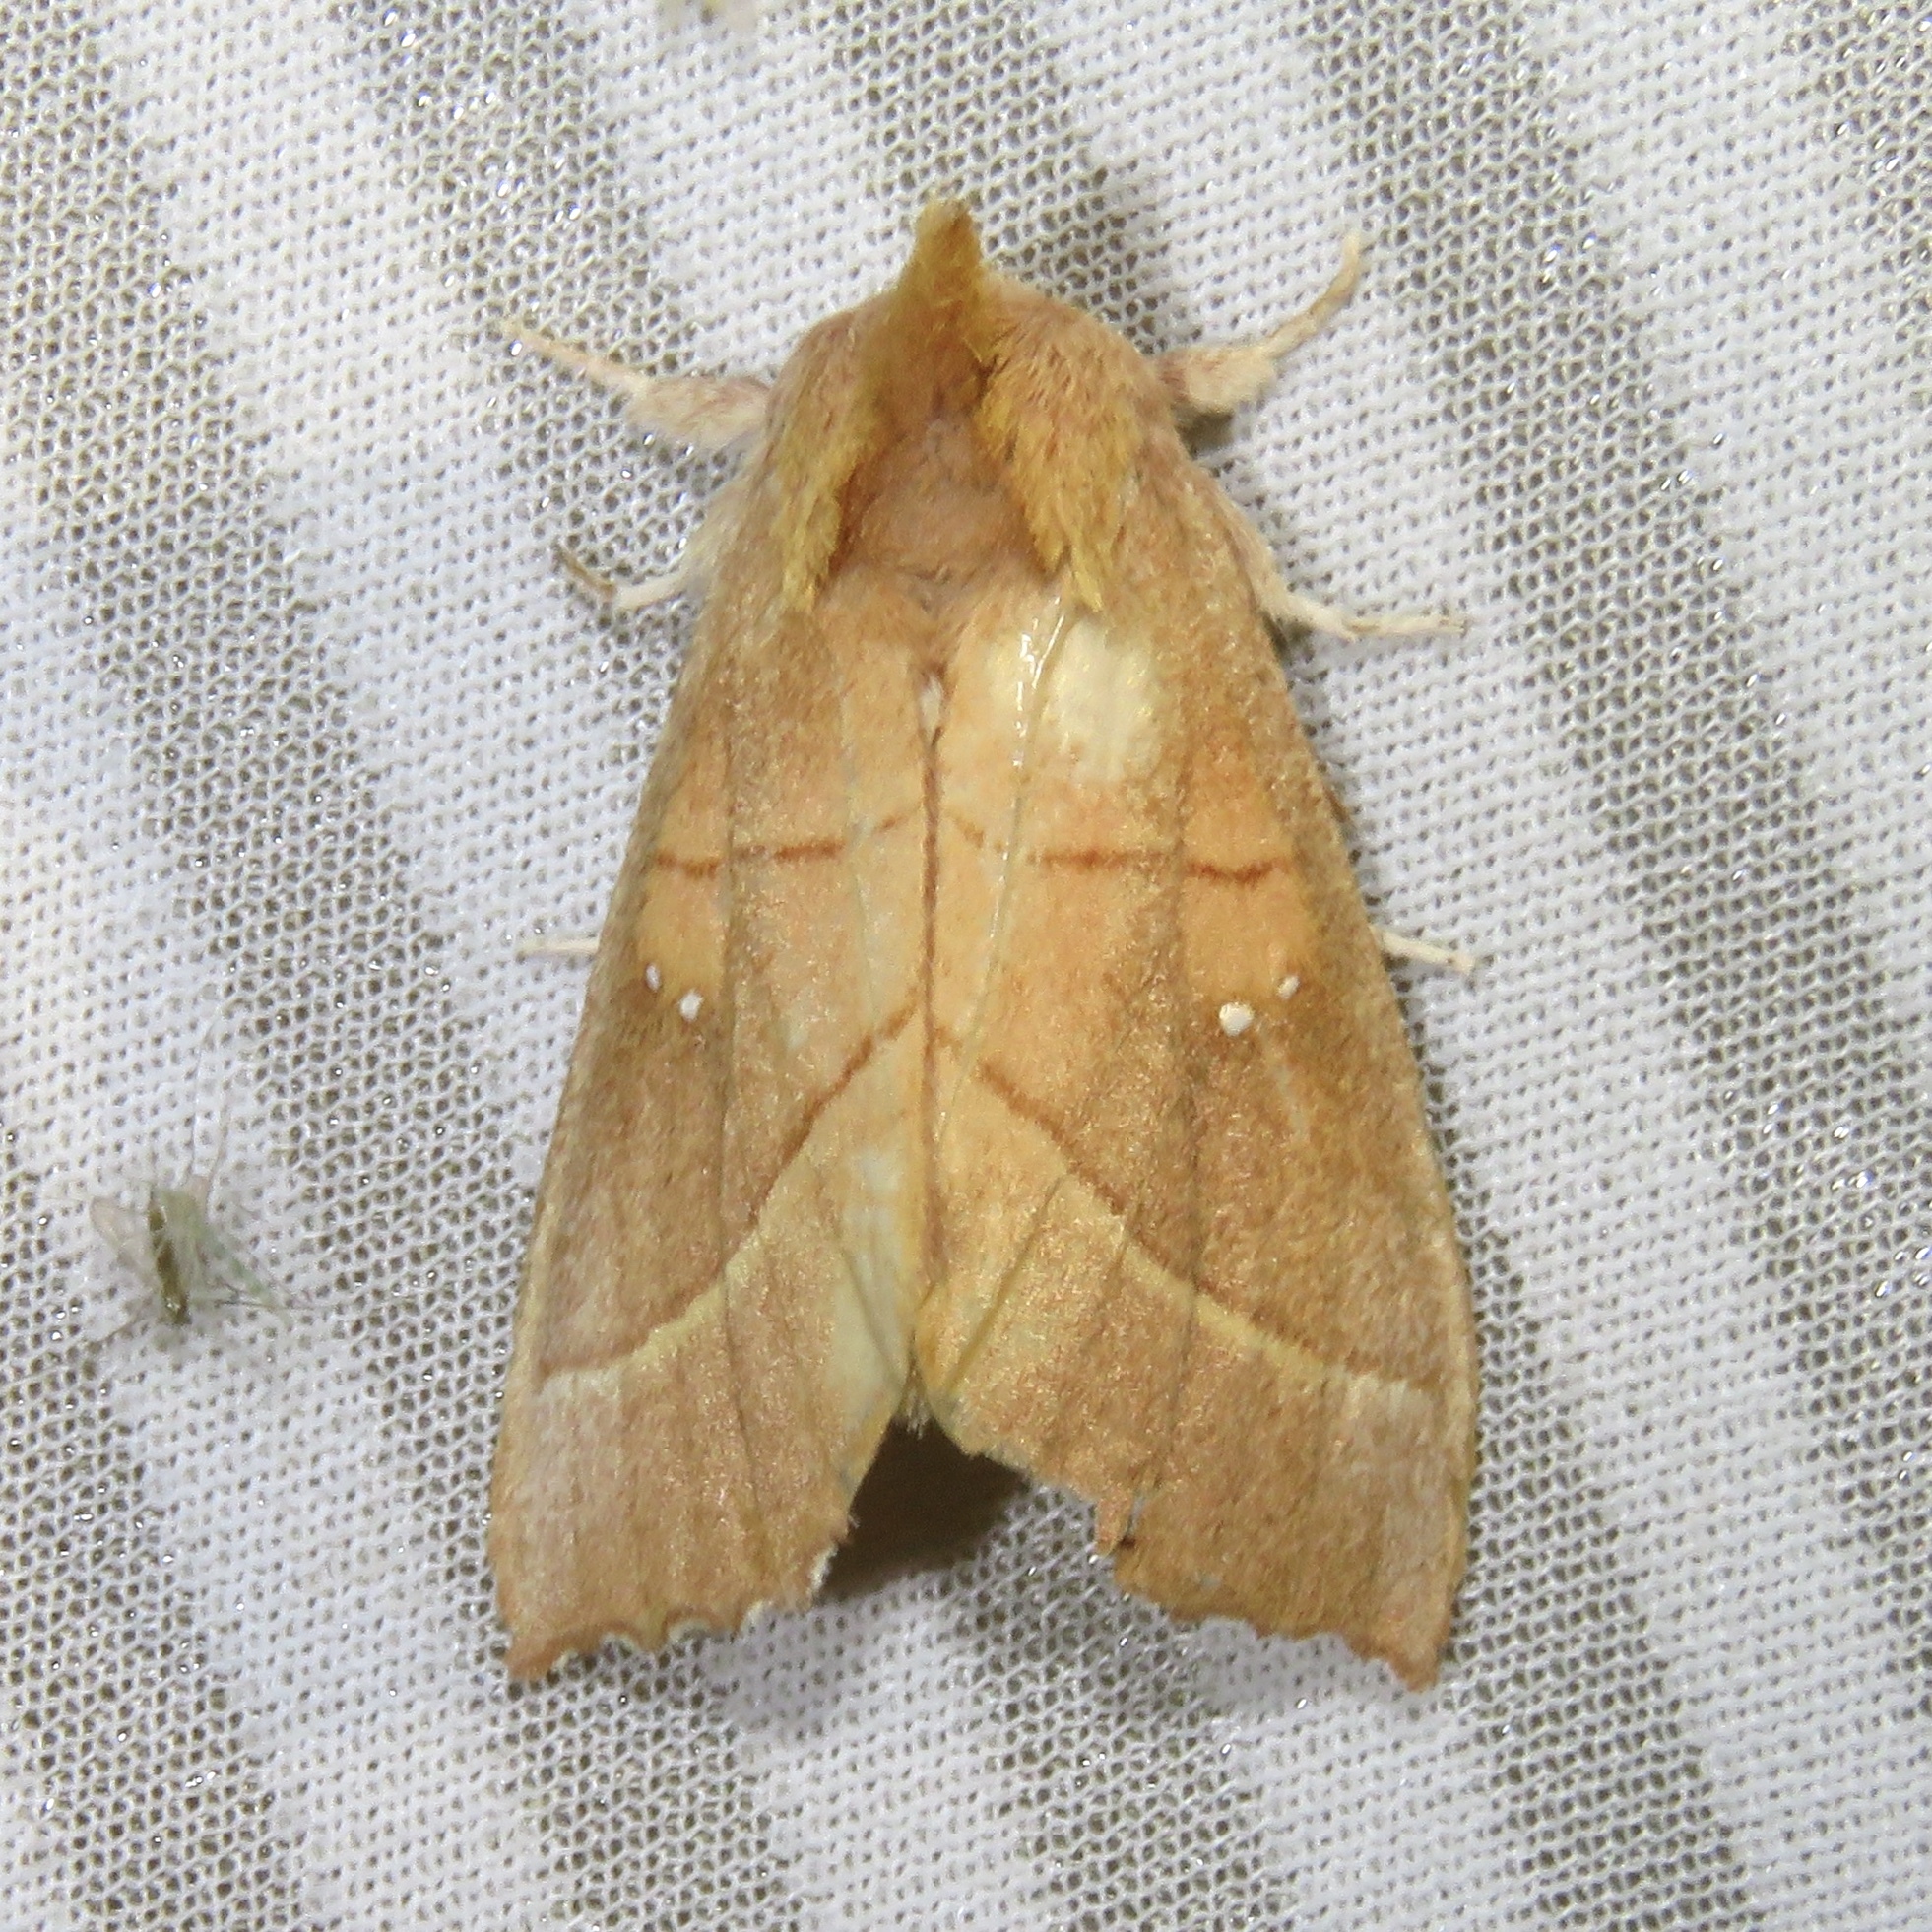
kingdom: Animalia
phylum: Arthropoda
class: Insecta
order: Lepidoptera
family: Notodontidae
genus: Nadata
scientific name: Nadata gibbosa
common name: White-dotted prominent
